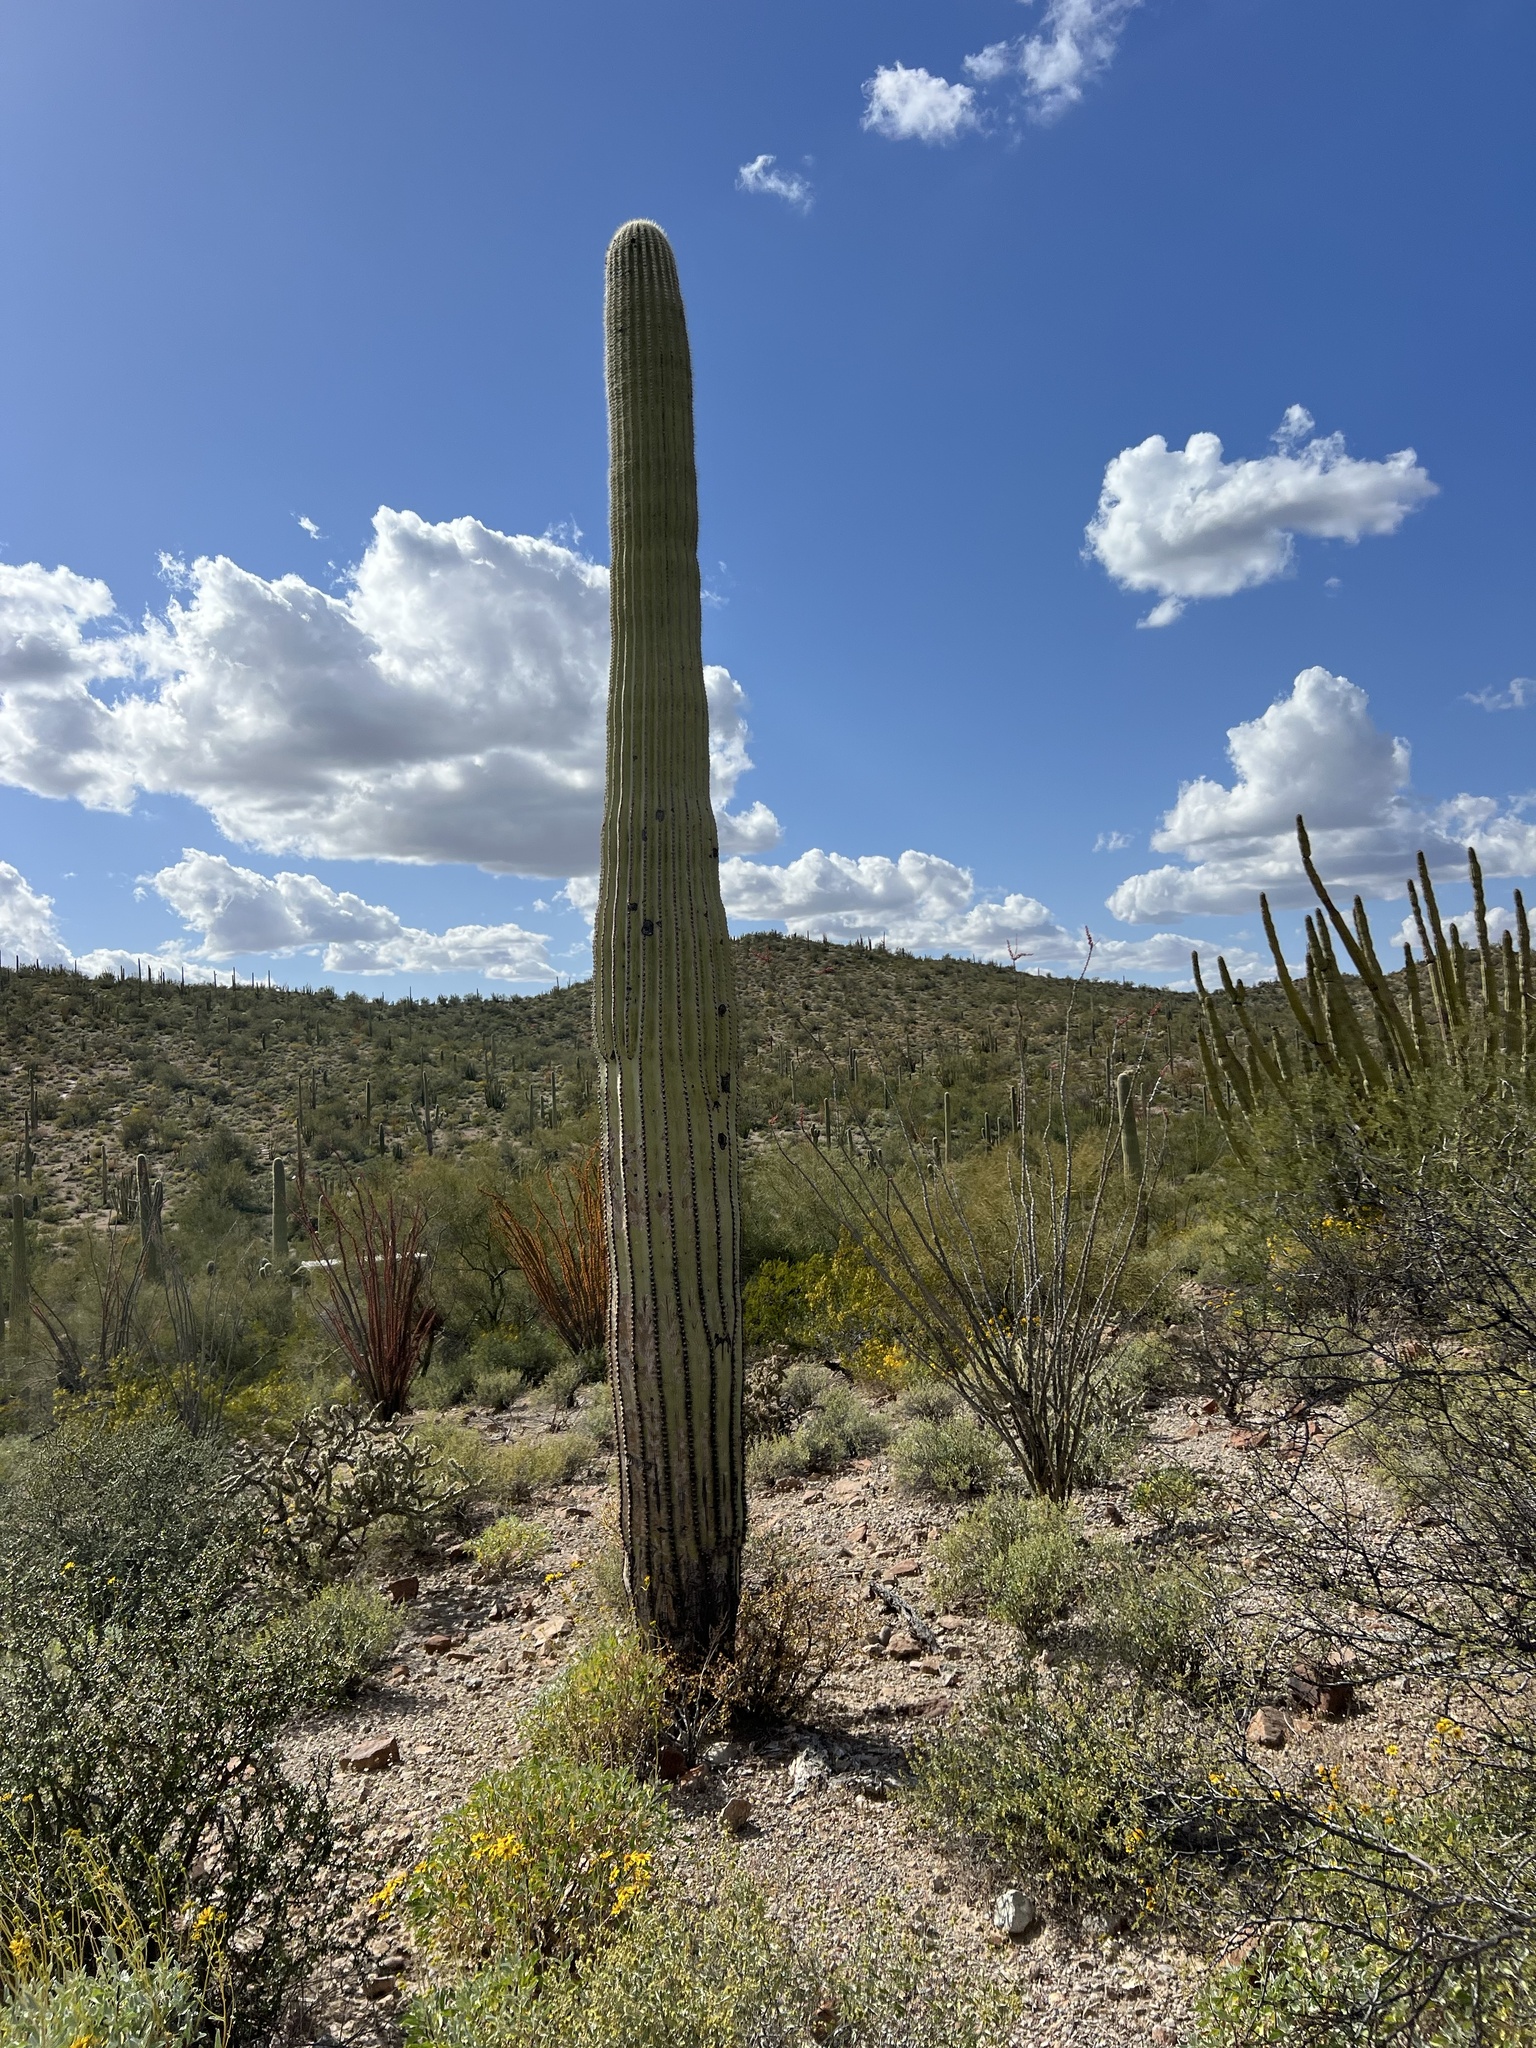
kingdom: Plantae
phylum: Tracheophyta
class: Magnoliopsida
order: Caryophyllales
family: Cactaceae
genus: Carnegiea
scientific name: Carnegiea gigantea
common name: Saguaro
